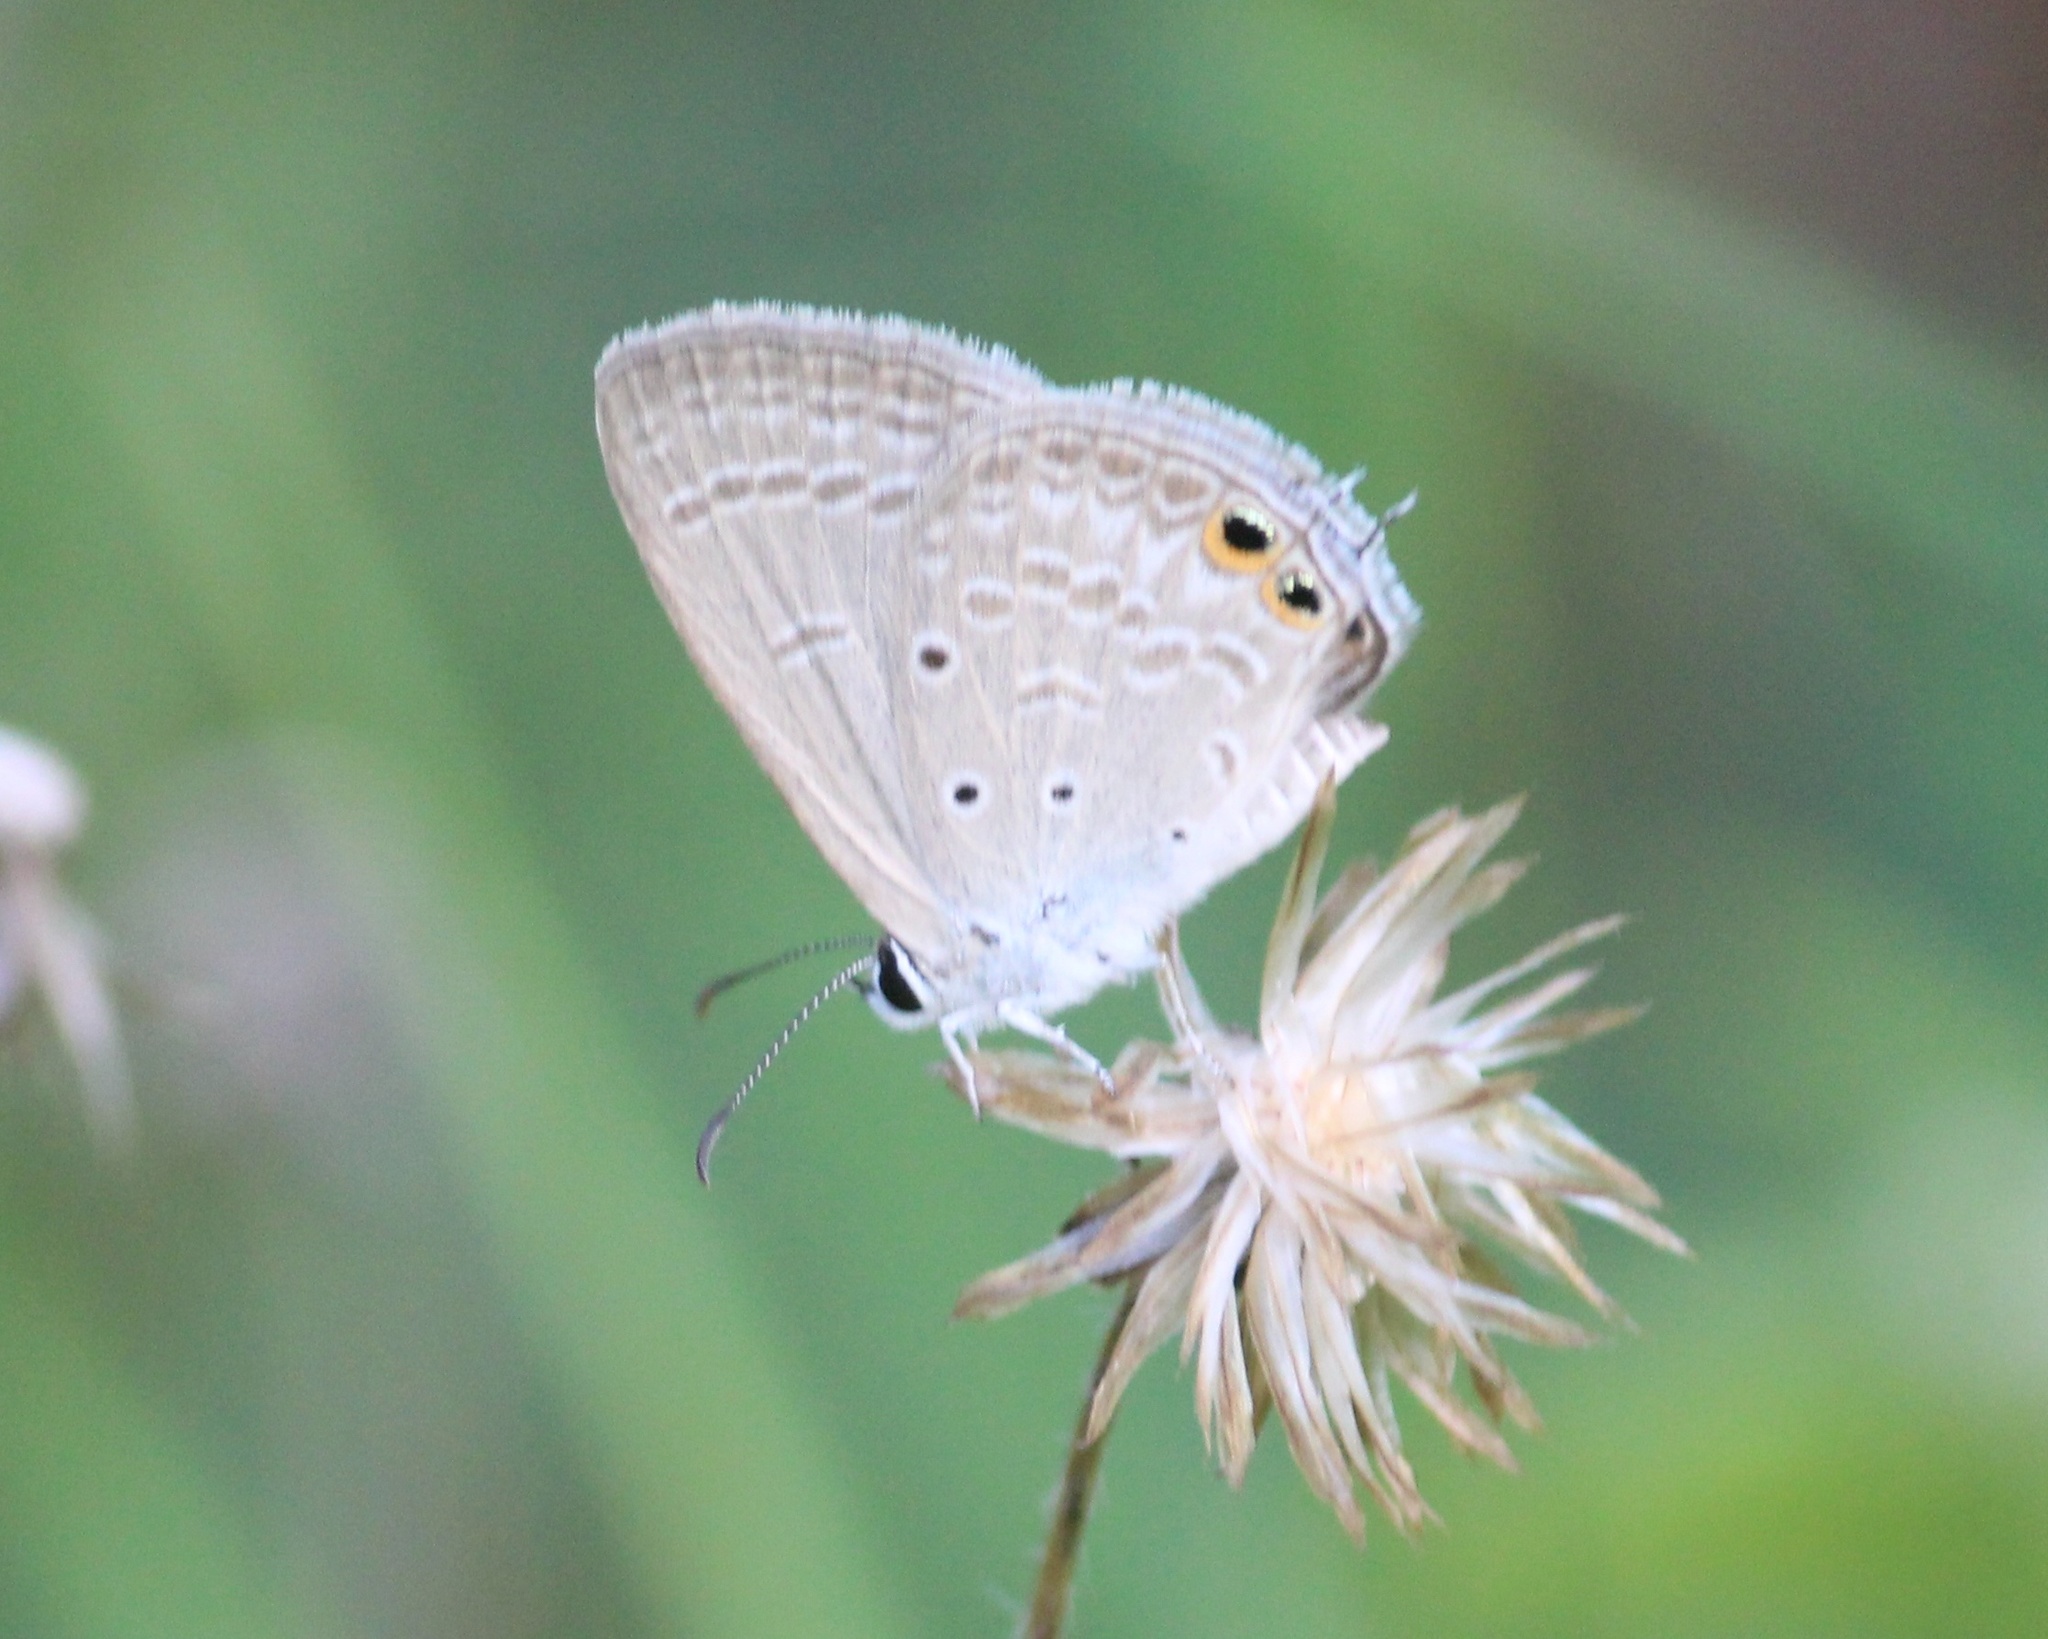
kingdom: Animalia
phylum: Arthropoda
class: Insecta
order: Lepidoptera
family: Lycaenidae
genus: Euchrysops
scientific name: Euchrysops cnejus
